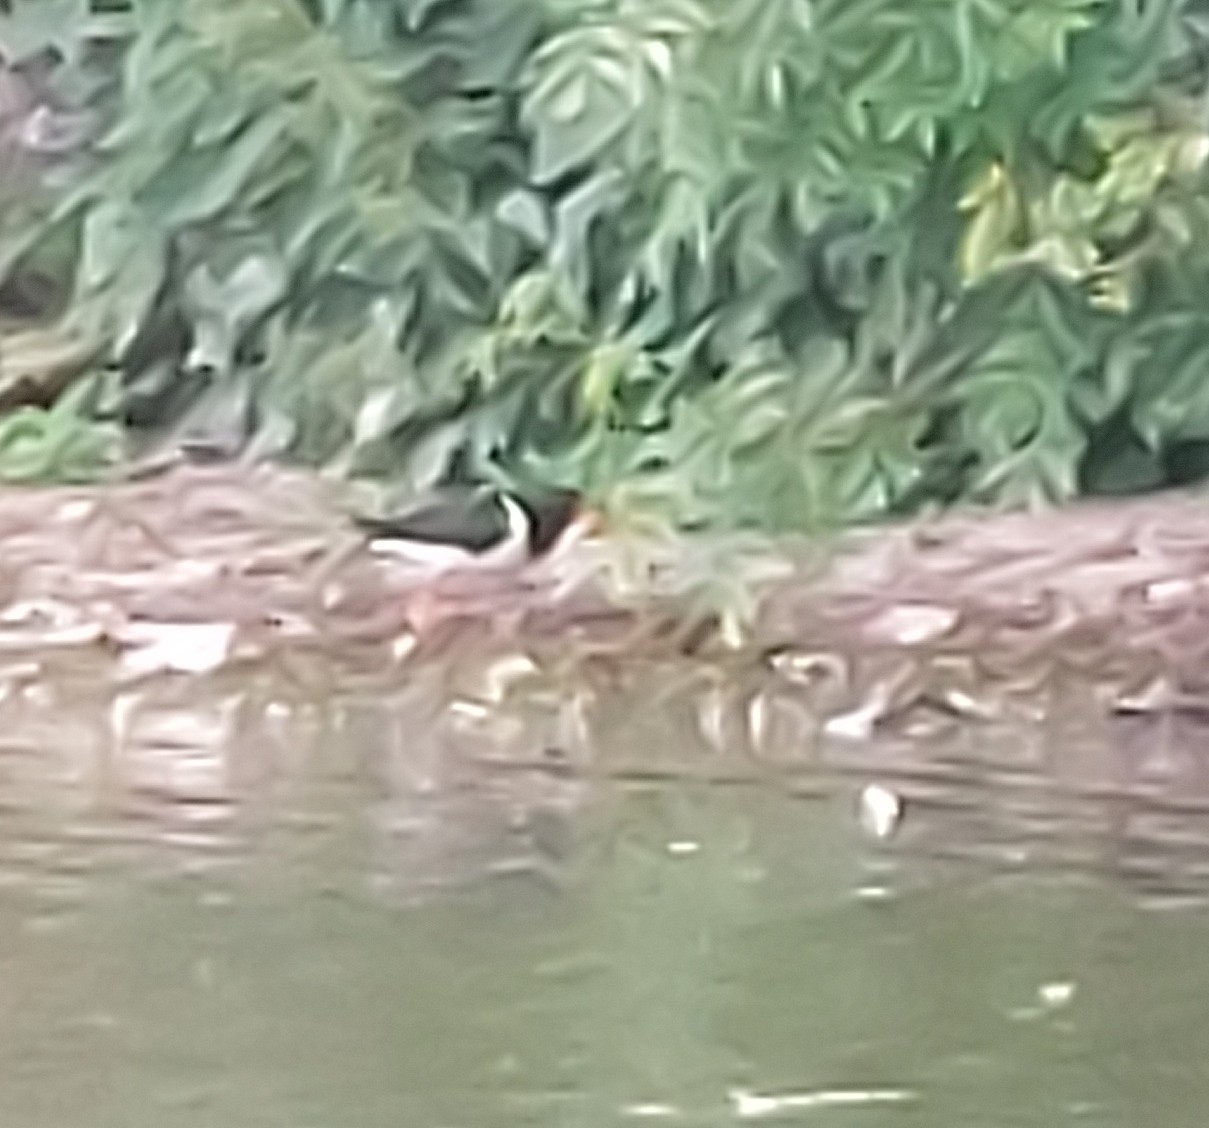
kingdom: Animalia
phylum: Chordata
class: Aves
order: Charadriiformes
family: Haematopodidae
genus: Haematopus
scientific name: Haematopus ostralegus
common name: Eurasian oystercatcher
